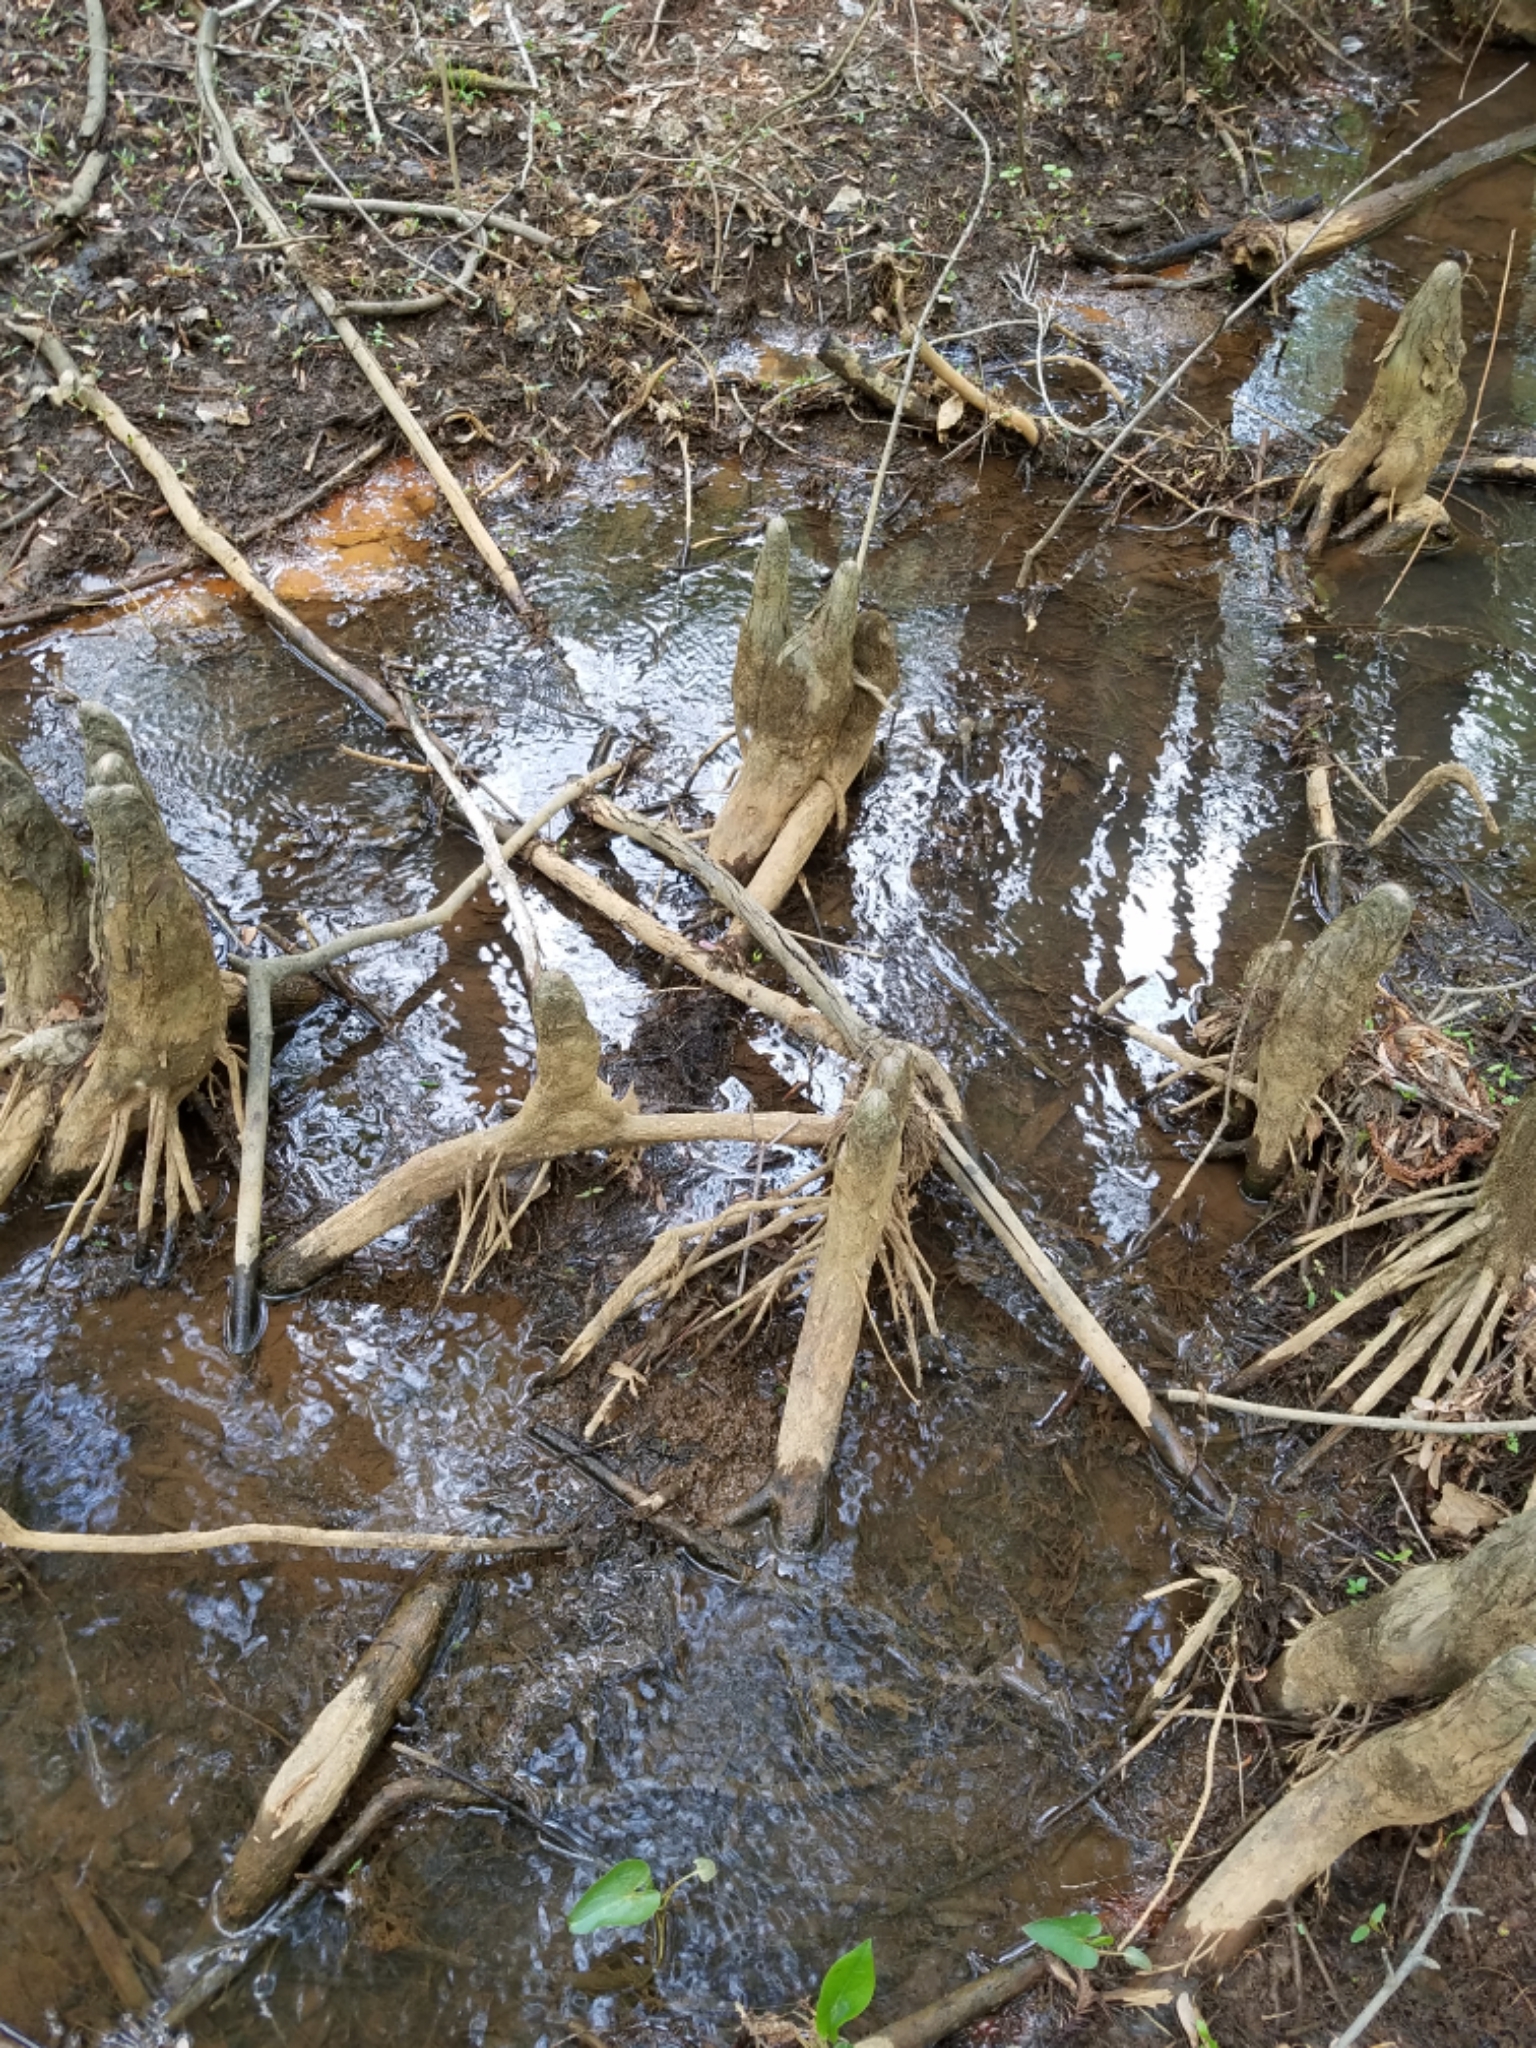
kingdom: Plantae
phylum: Tracheophyta
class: Pinopsida
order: Pinales
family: Cupressaceae
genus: Taxodium
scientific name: Taxodium distichum
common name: Bald cypress
